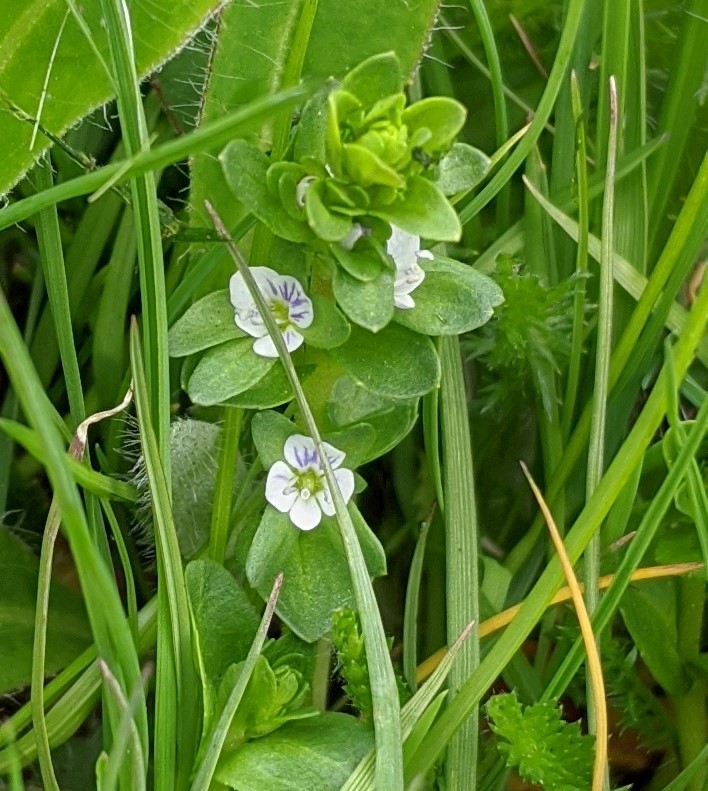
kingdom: Plantae
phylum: Tracheophyta
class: Magnoliopsida
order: Lamiales
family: Plantaginaceae
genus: Veronica
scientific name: Veronica serpyllifolia
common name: Thyme-leaved speedwell
